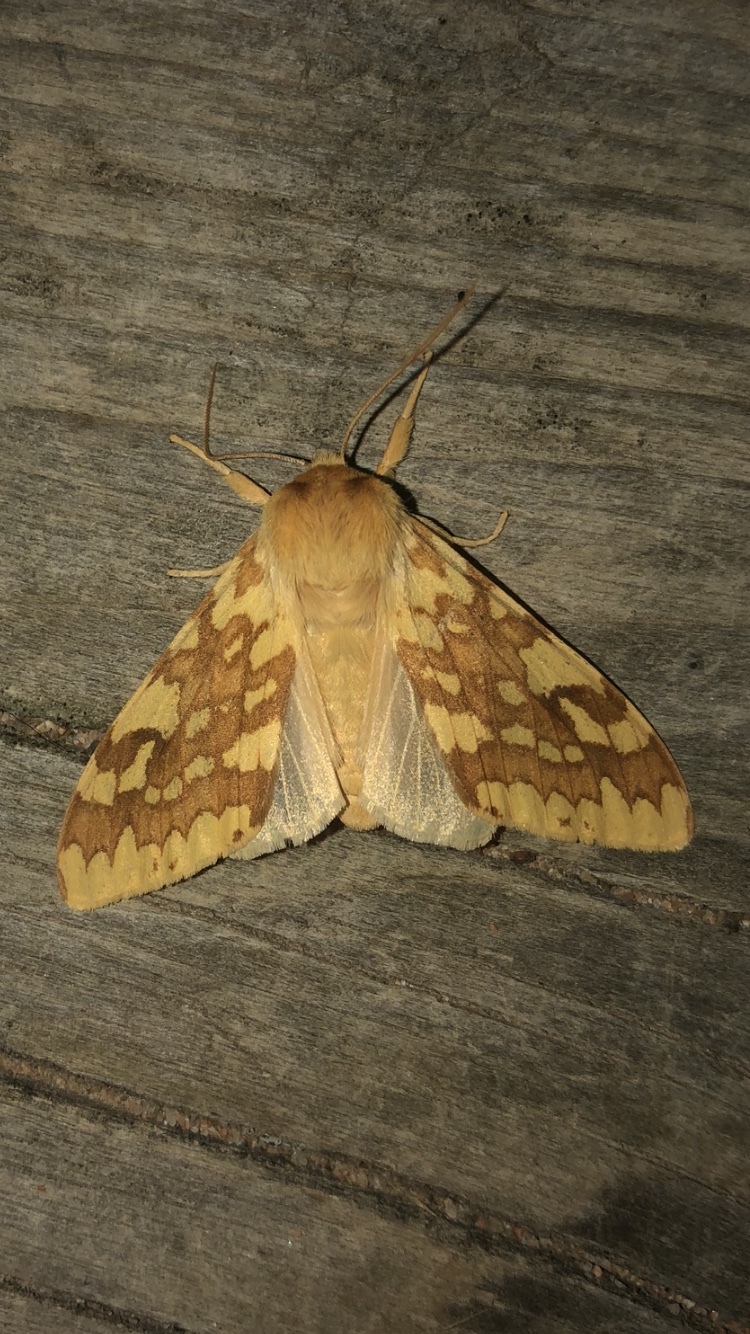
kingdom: Animalia
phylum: Arthropoda
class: Insecta
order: Lepidoptera
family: Erebidae
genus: Lophocampa
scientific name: Lophocampa maculata
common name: Spotted tussock moth
